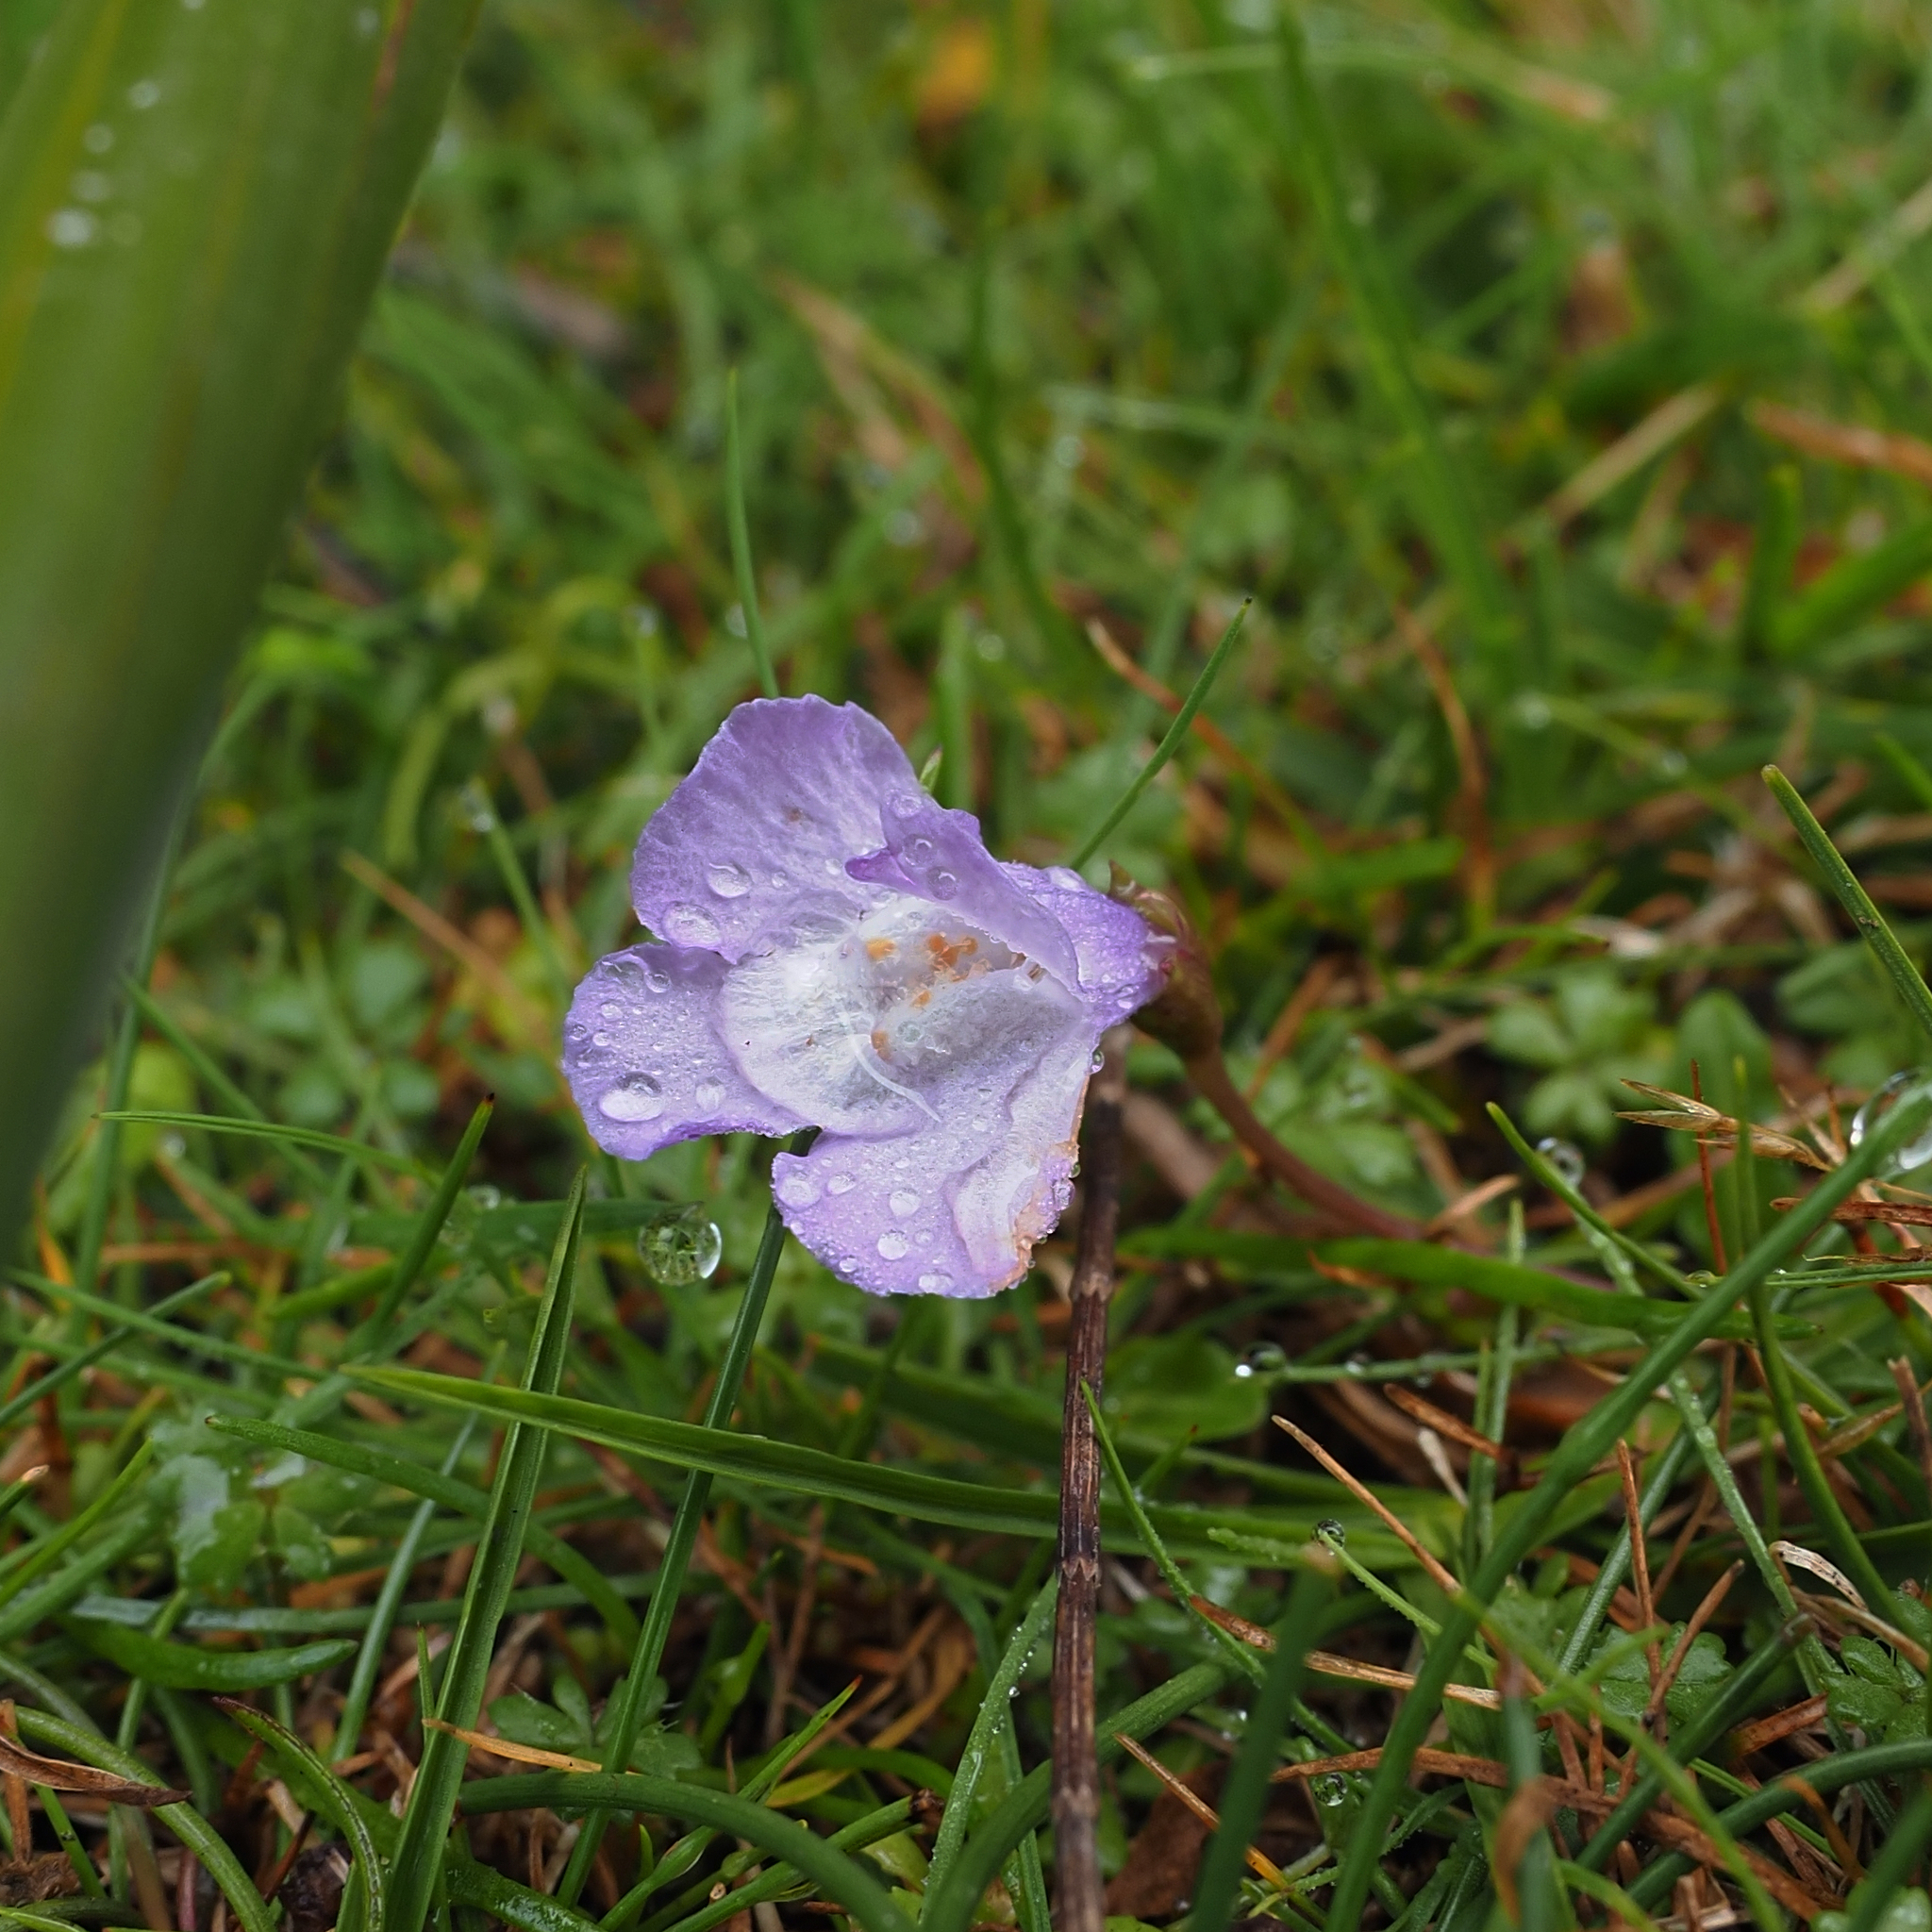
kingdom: Plantae
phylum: Tracheophyta
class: Magnoliopsida
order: Lamiales
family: Mazaceae
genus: Mazus
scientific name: Mazus pumilio
